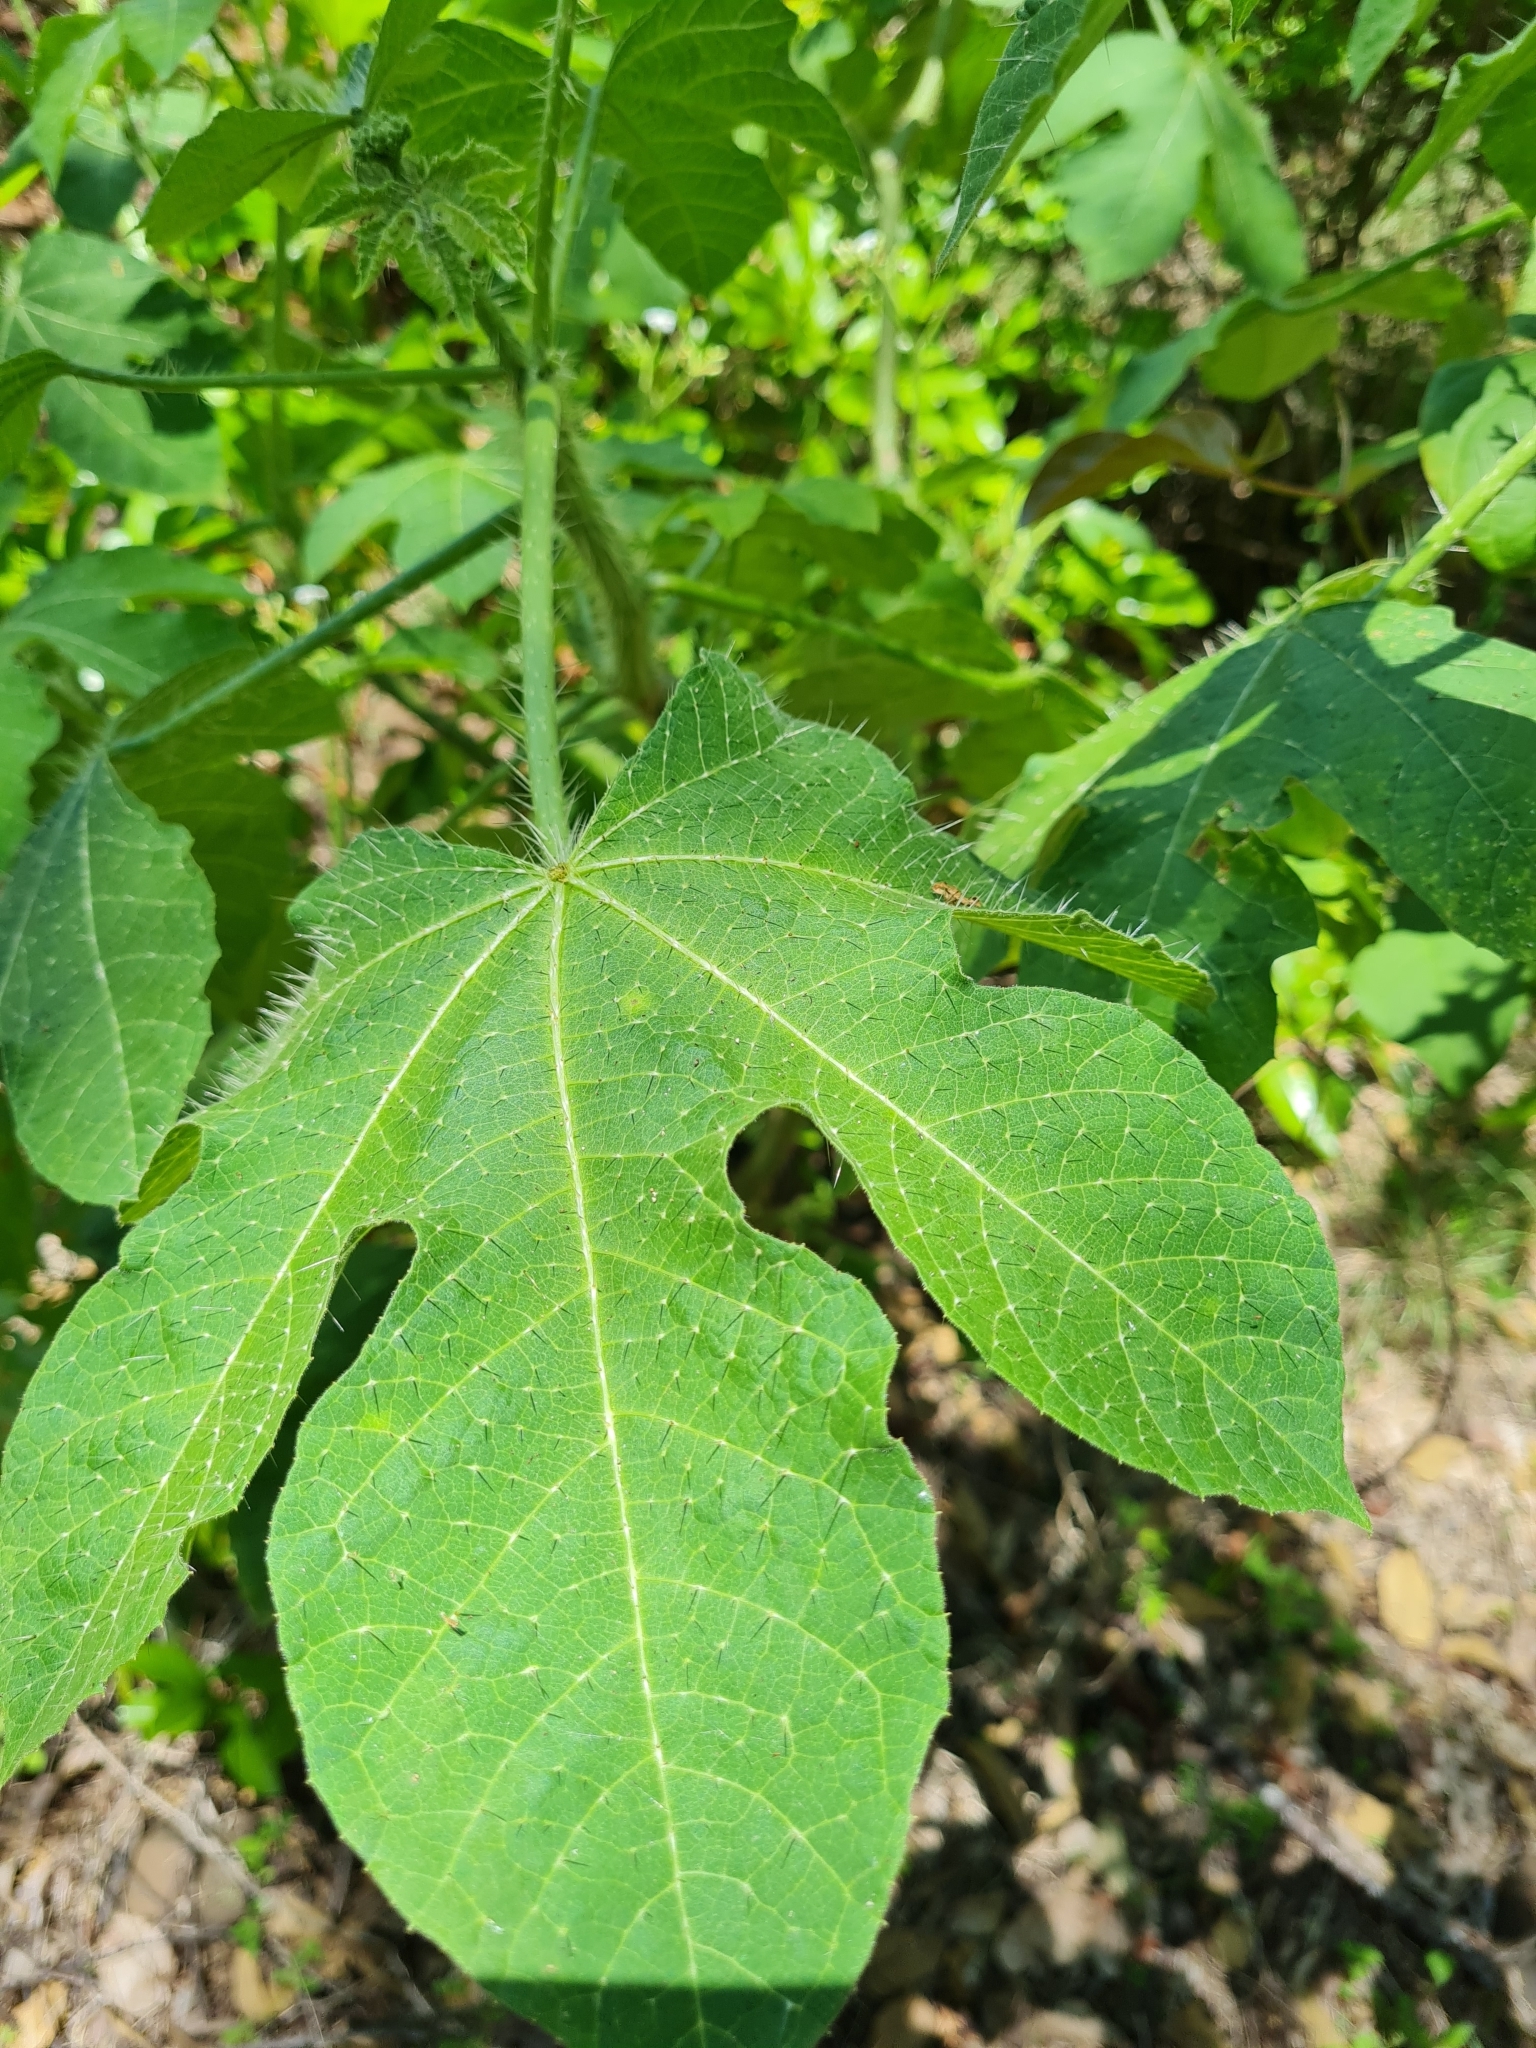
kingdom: Plantae
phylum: Tracheophyta
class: Magnoliopsida
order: Malpighiales
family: Euphorbiaceae
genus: Cnidoscolus
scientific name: Cnidoscolus urens
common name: Bull-nettle
